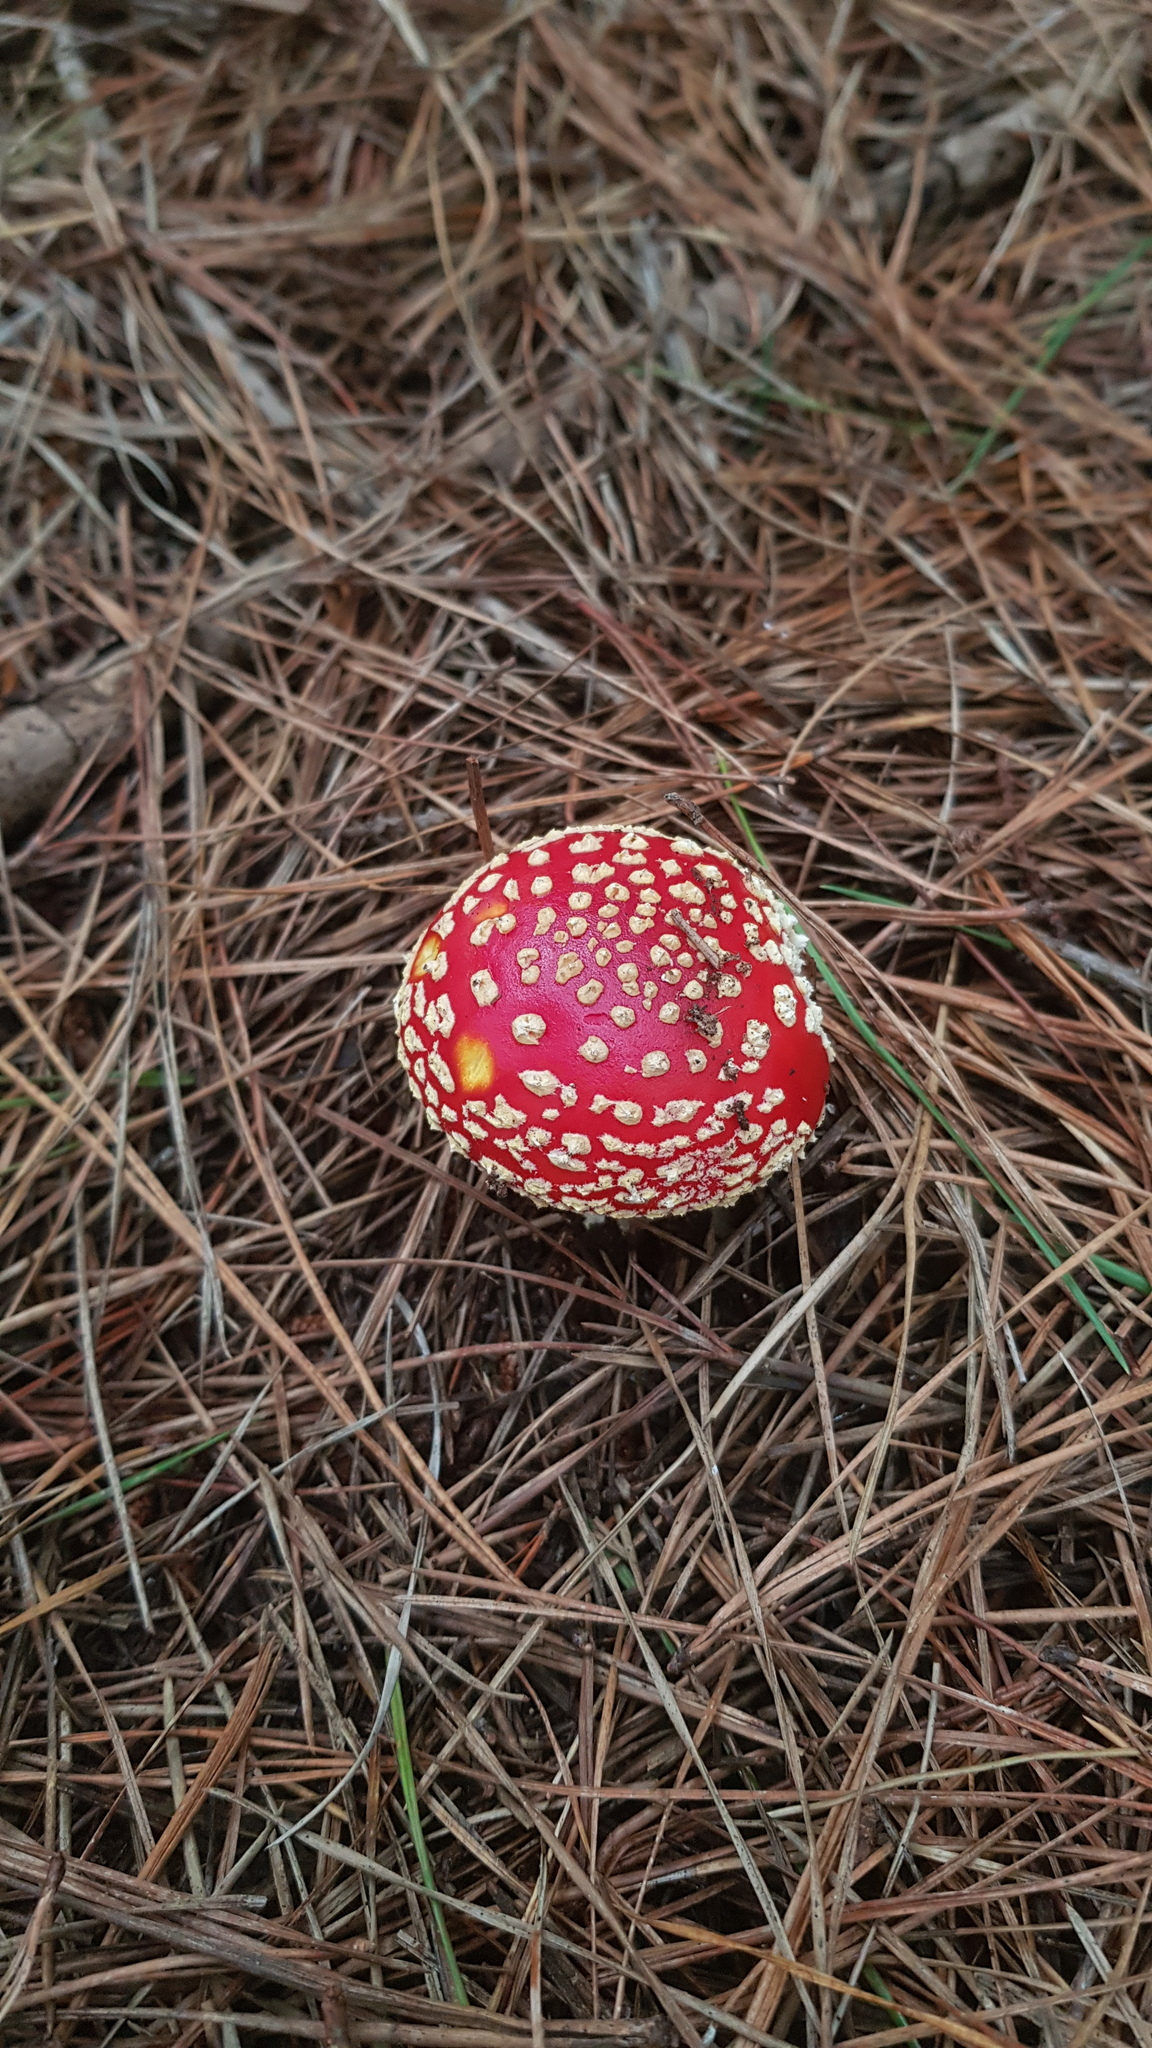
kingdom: Fungi
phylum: Basidiomycota
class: Agaricomycetes
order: Agaricales
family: Amanitaceae
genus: Amanita
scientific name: Amanita muscaria
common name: Fly agaric
